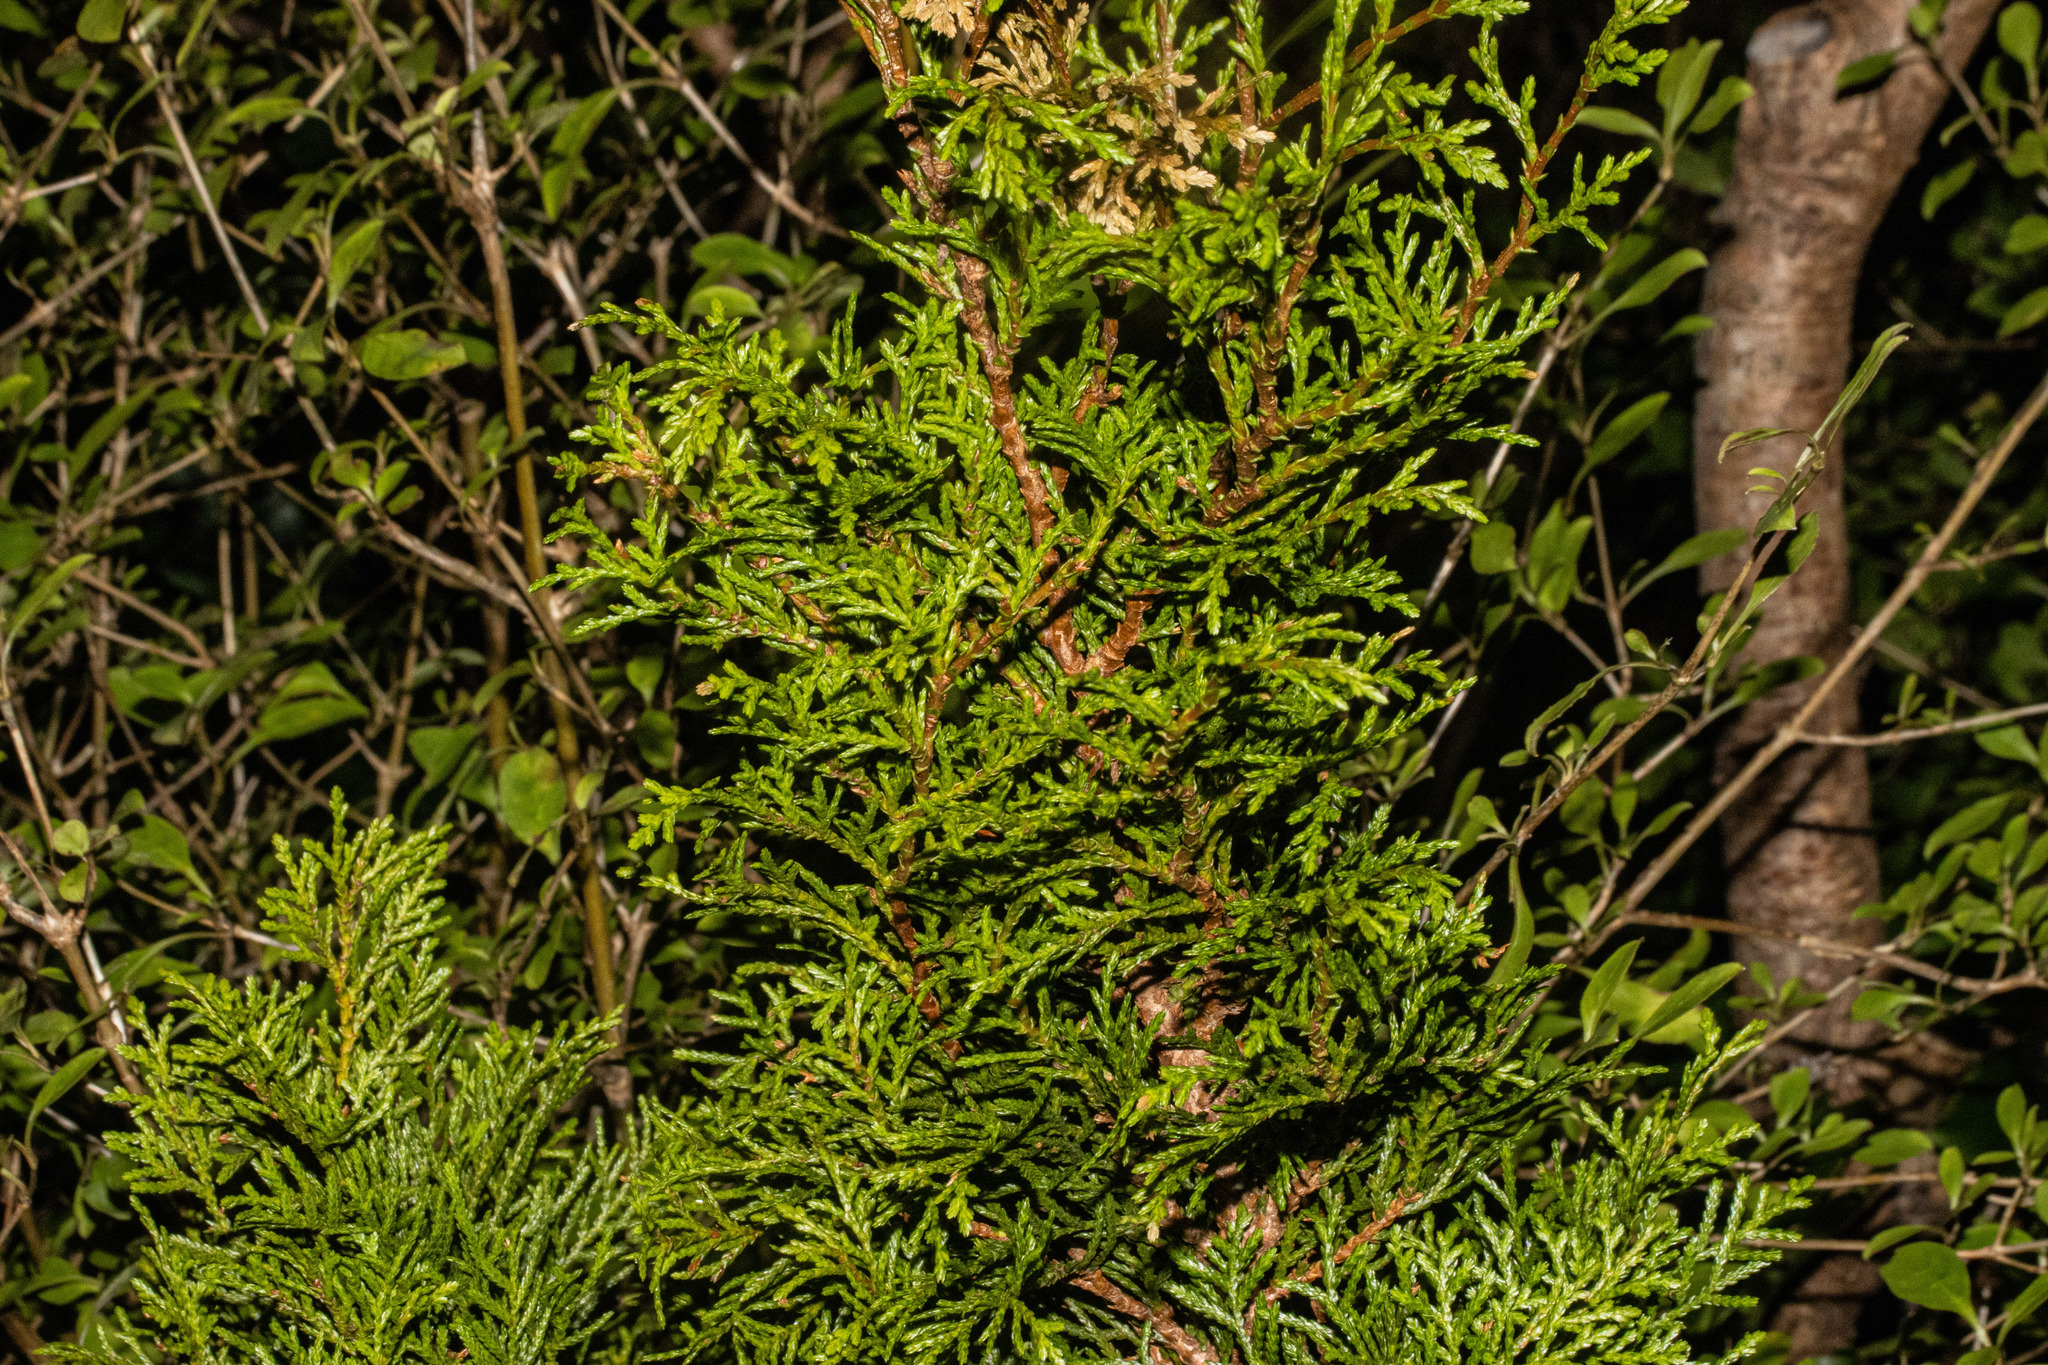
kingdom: Plantae
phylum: Tracheophyta
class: Pinopsida
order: Pinales
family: Cupressaceae
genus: Libocedrus
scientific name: Libocedrus bidwillii
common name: Cedar
